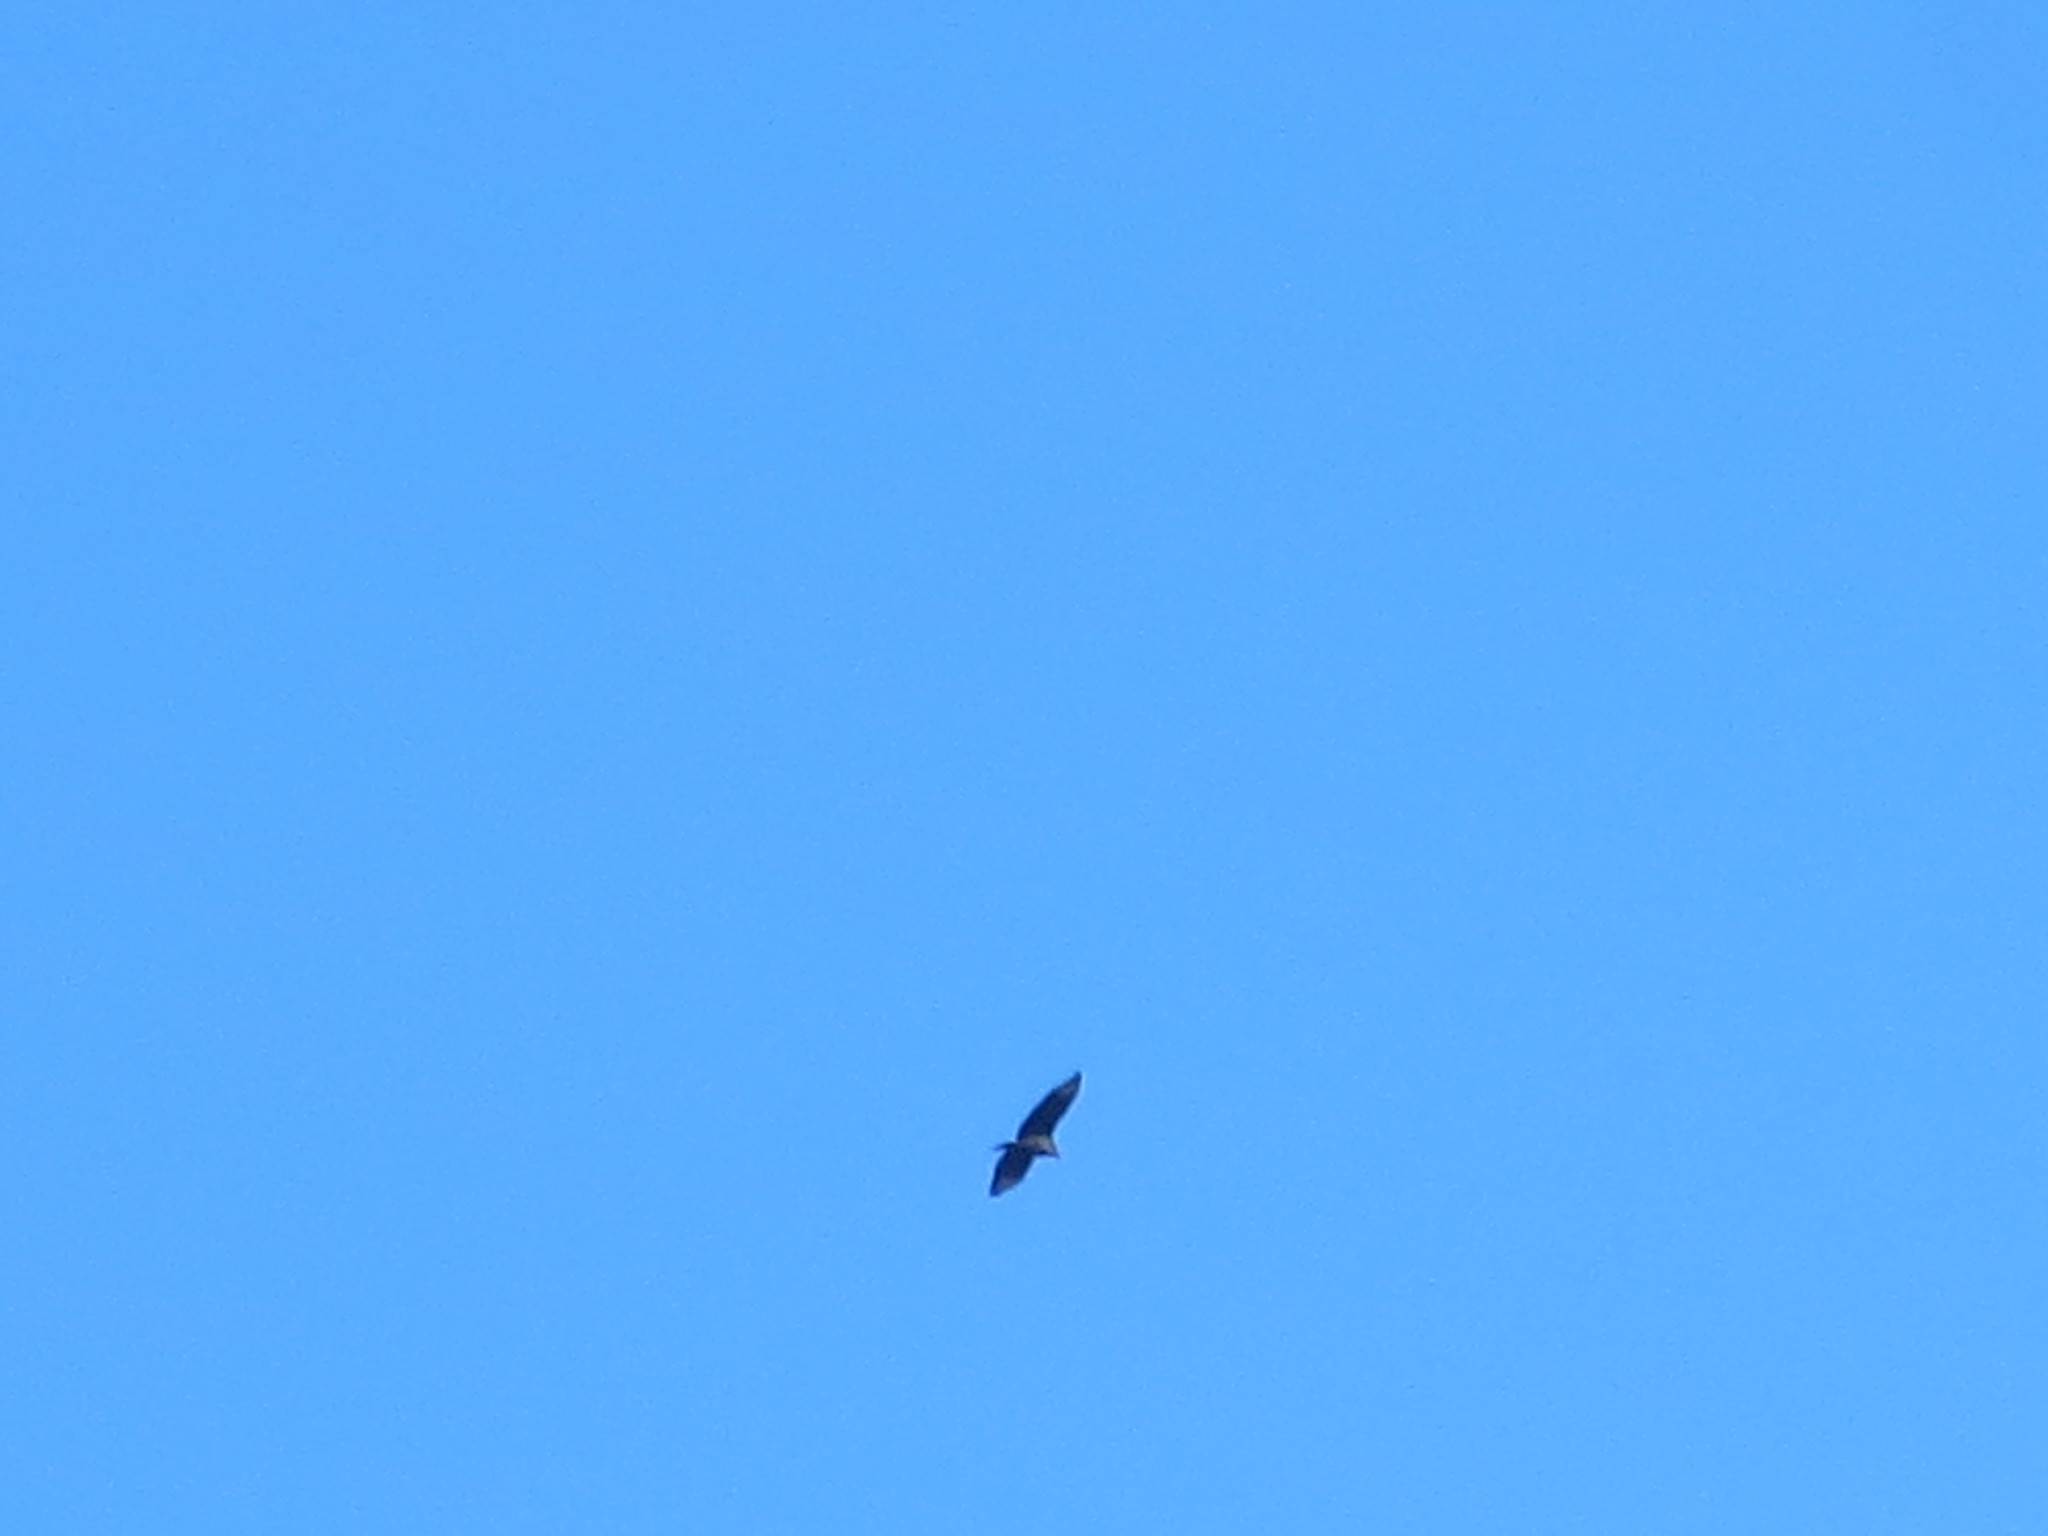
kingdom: Animalia
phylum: Chordata
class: Aves
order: Accipitriformes
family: Cathartidae
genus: Coragyps
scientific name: Coragyps atratus
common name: Black vulture
